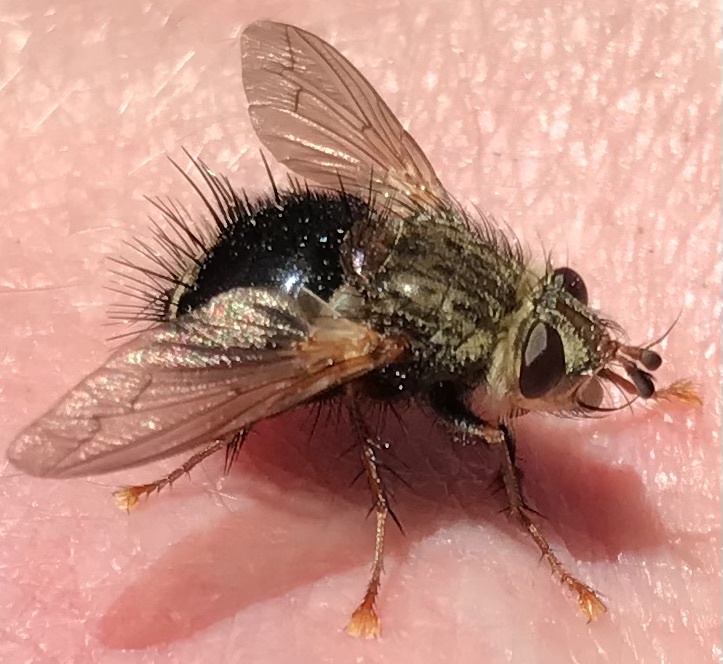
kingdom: Animalia
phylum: Arthropoda
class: Insecta
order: Diptera
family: Tachinidae
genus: Epalpus
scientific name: Epalpus signifer
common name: Early tachinid fly
